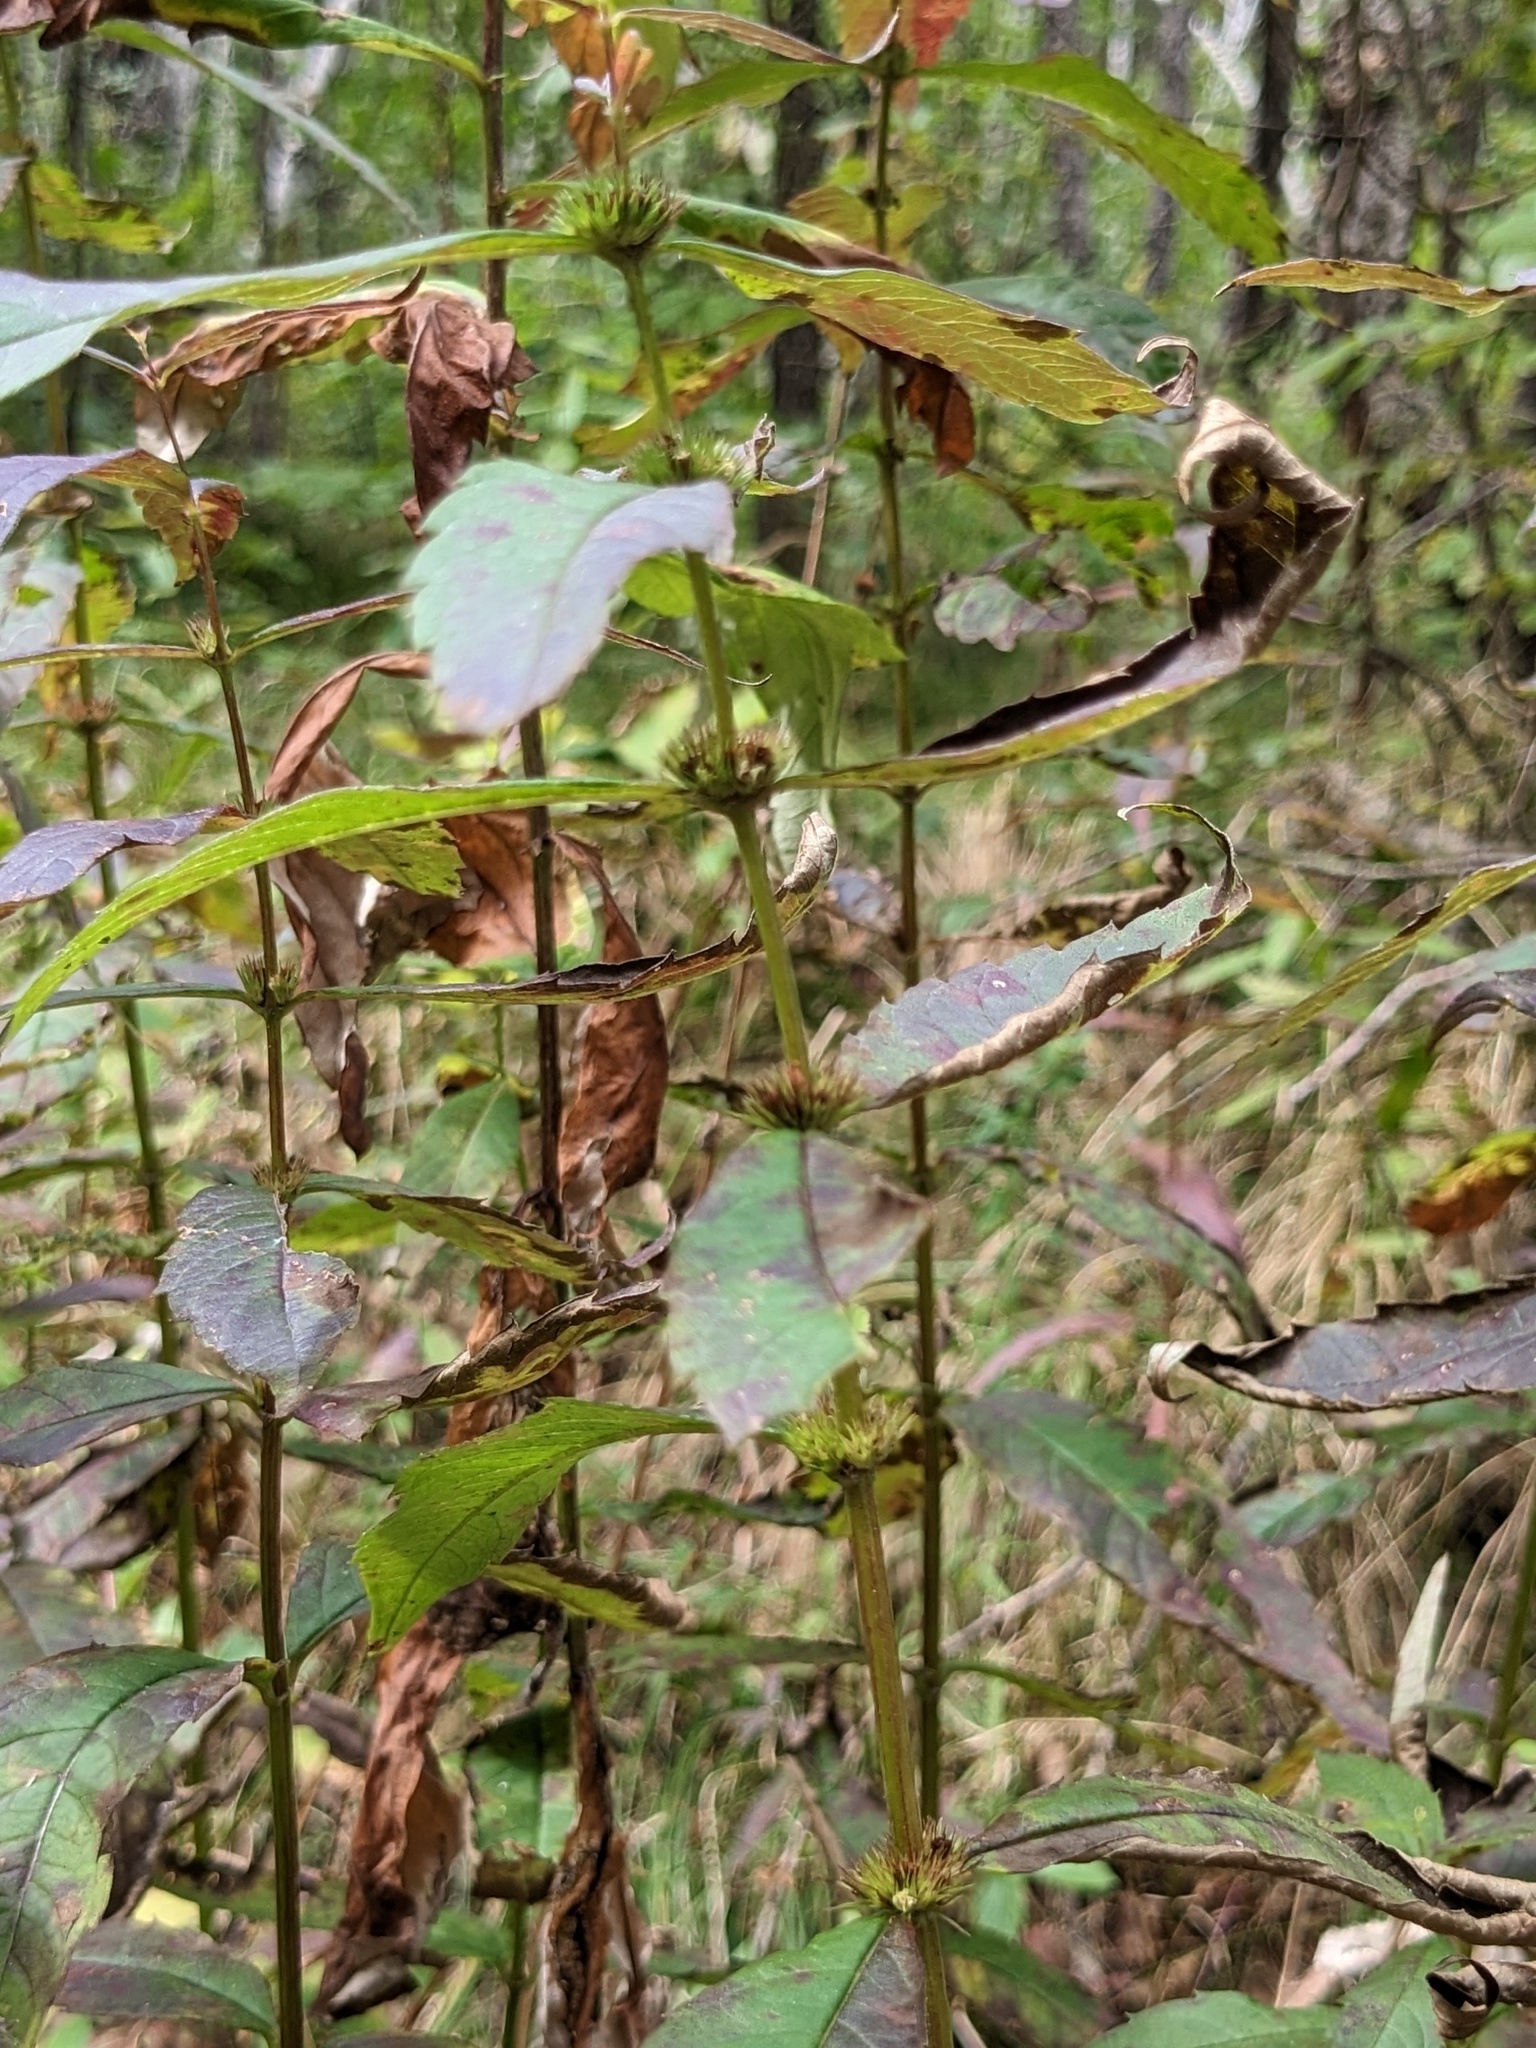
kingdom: Plantae
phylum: Tracheophyta
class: Magnoliopsida
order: Lamiales
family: Lamiaceae
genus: Lycopus
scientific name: Lycopus lucidus
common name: Shiny bugleweed
